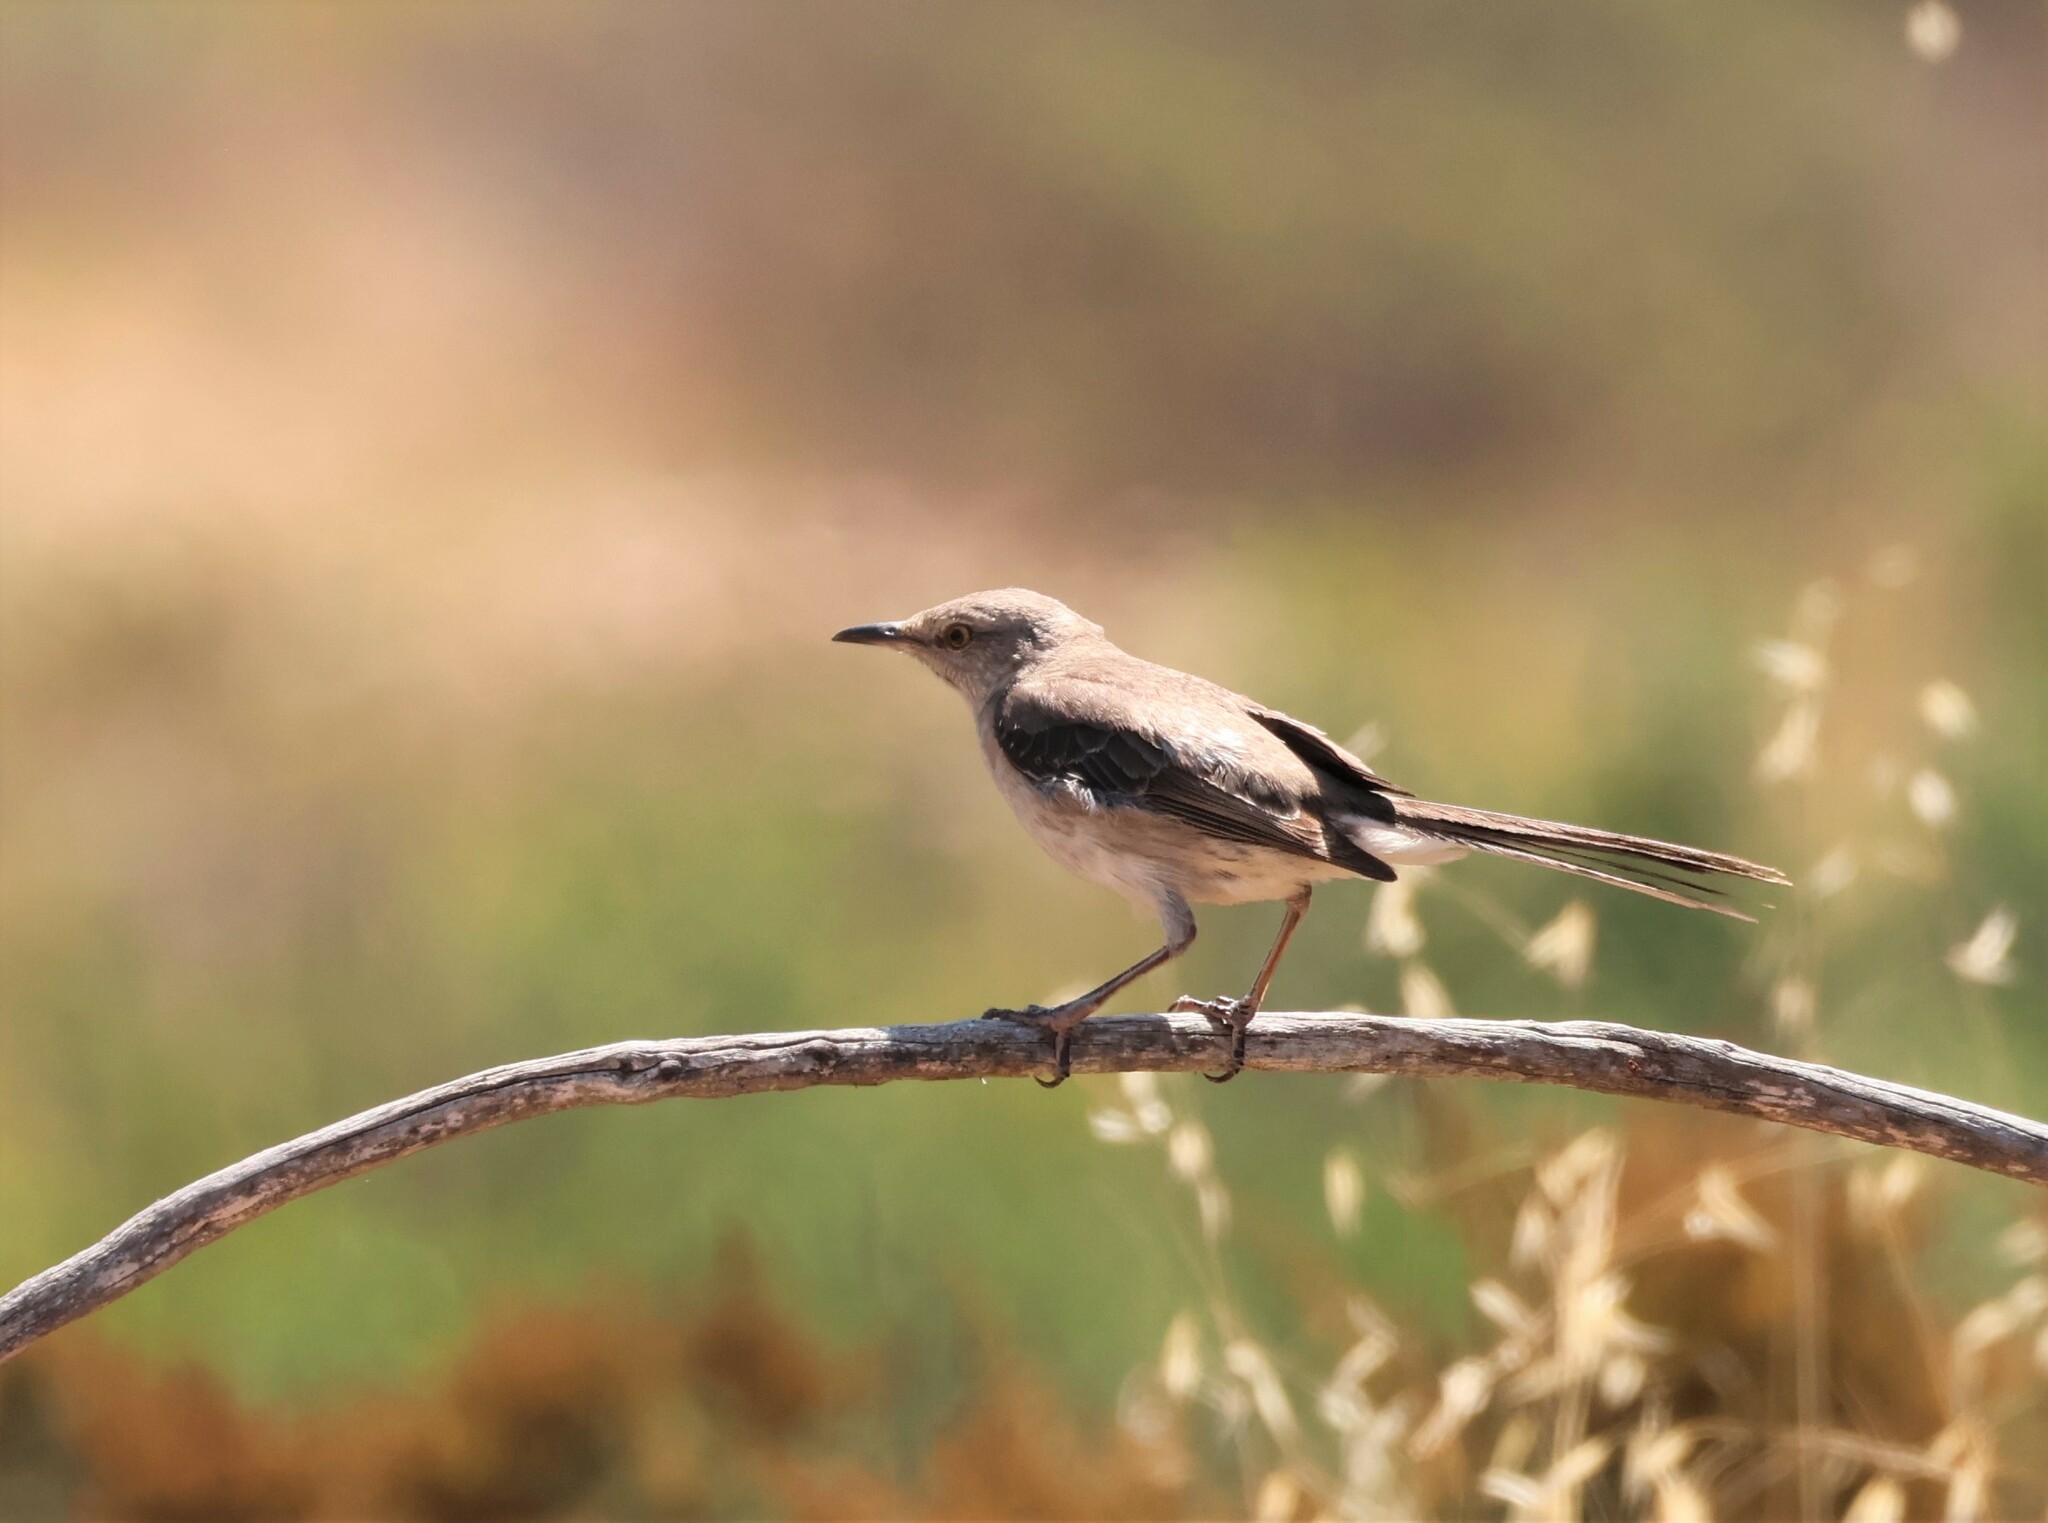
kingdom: Animalia
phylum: Chordata
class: Aves
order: Passeriformes
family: Mimidae
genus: Mimus
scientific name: Mimus polyglottos
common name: Northern mockingbird
